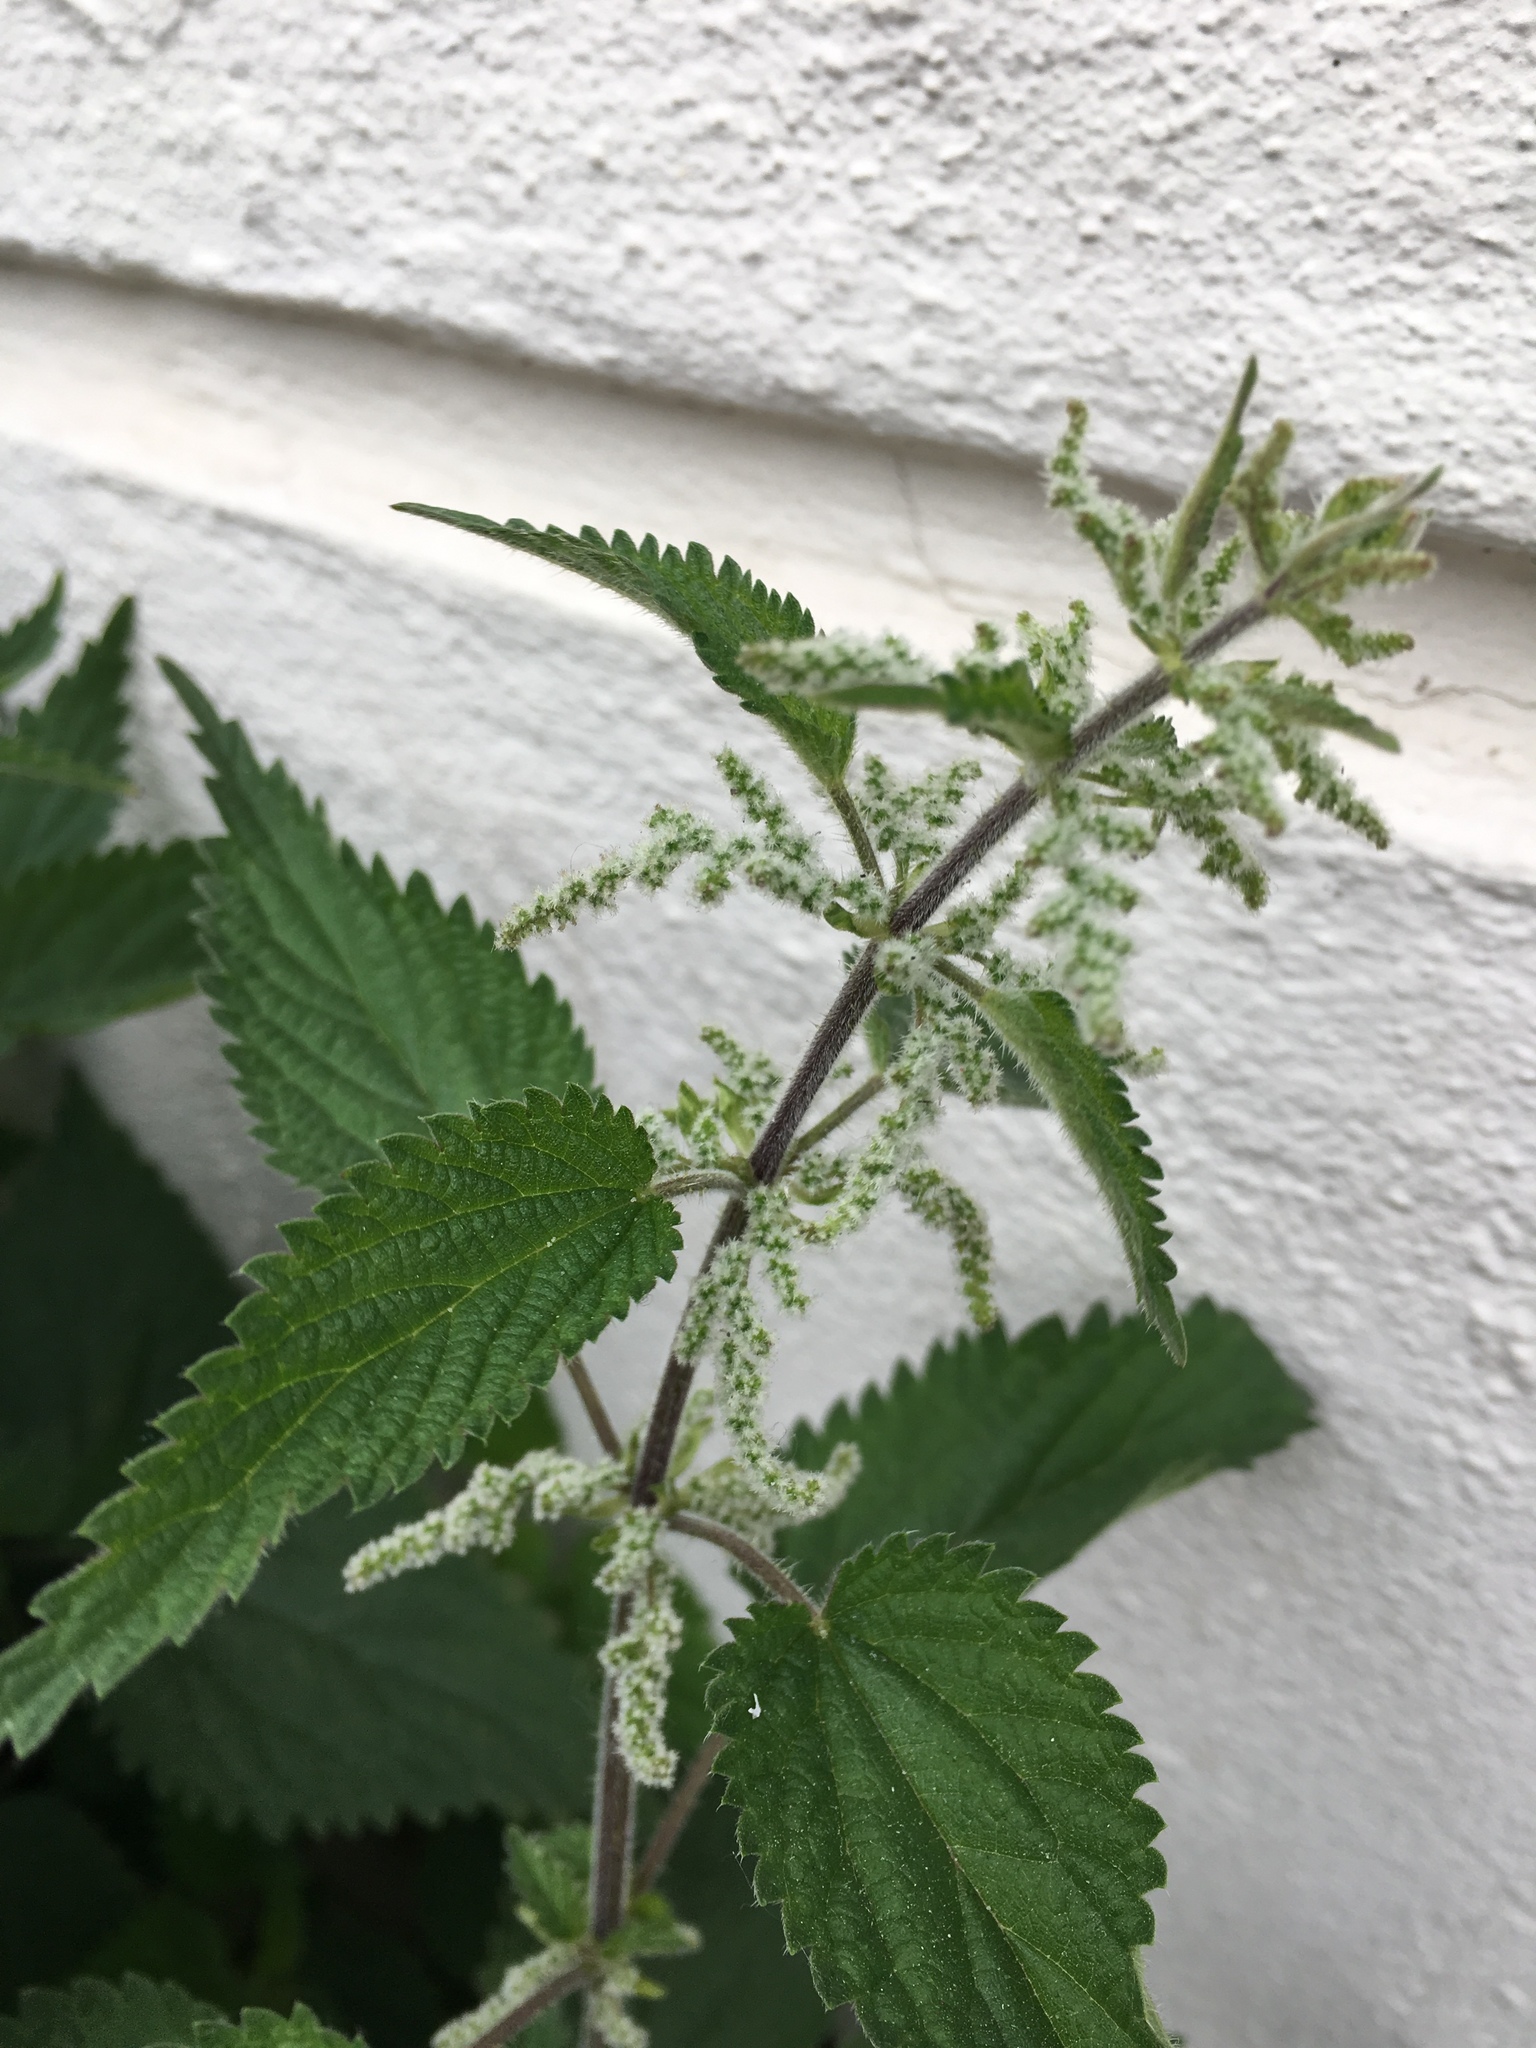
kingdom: Plantae
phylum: Tracheophyta
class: Magnoliopsida
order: Rosales
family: Urticaceae
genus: Urtica
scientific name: Urtica dioica
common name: Common nettle
